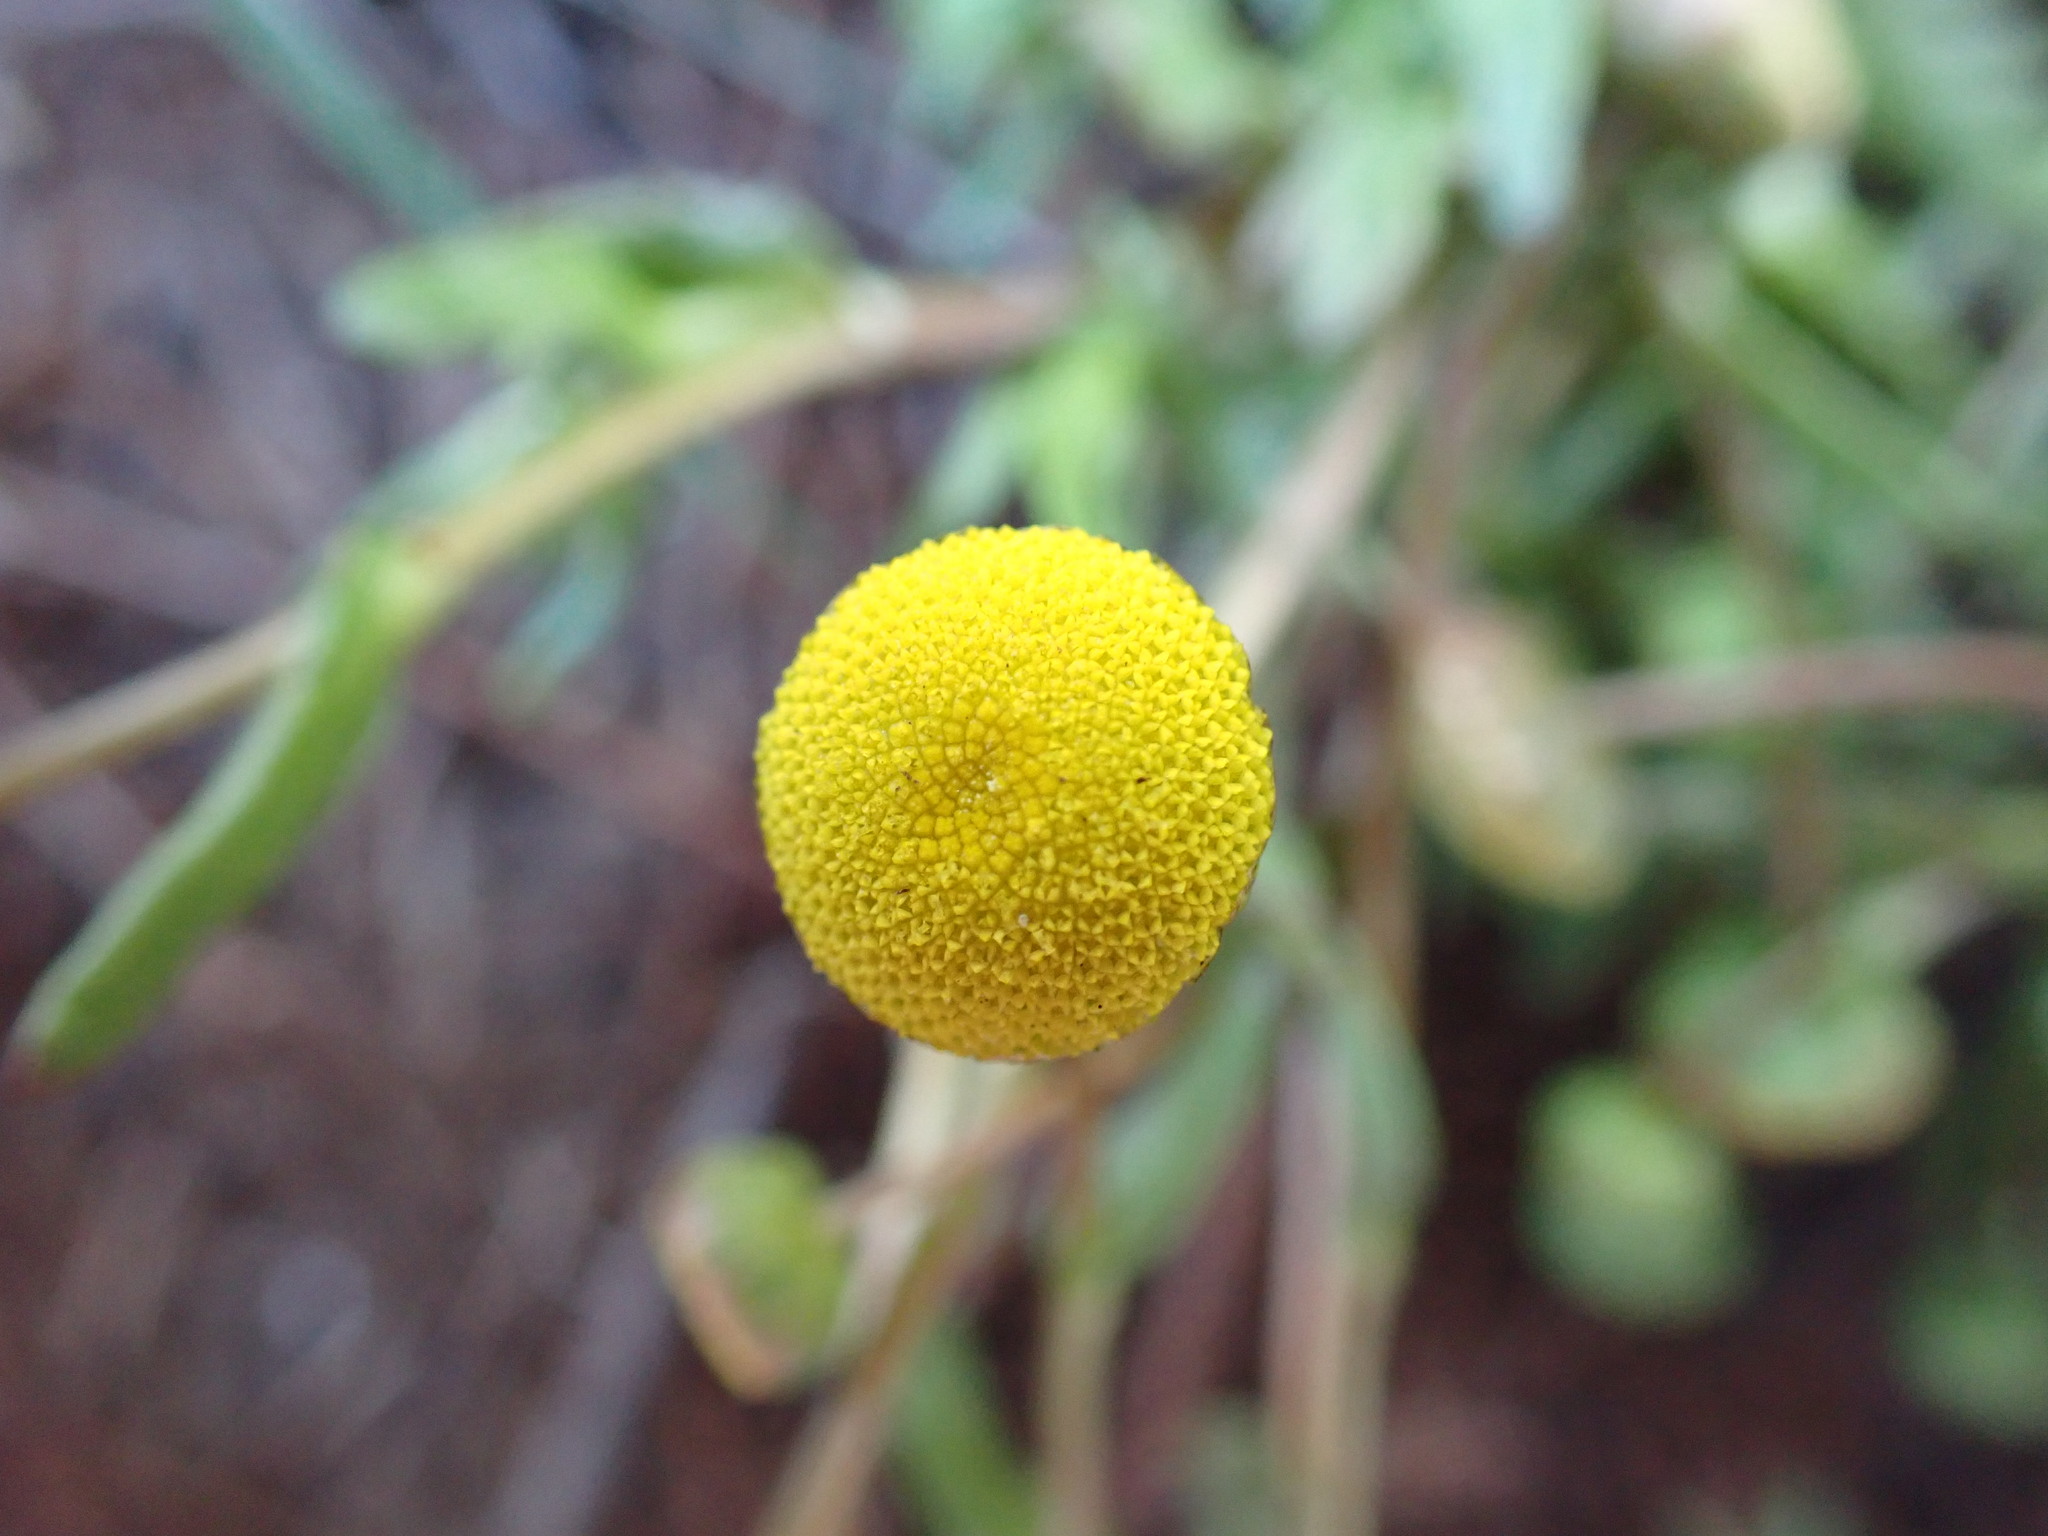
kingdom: Plantae
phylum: Tracheophyta
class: Magnoliopsida
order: Asterales
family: Asteraceae
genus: Cotula
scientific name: Cotula coronopifolia
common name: Buttonweed
